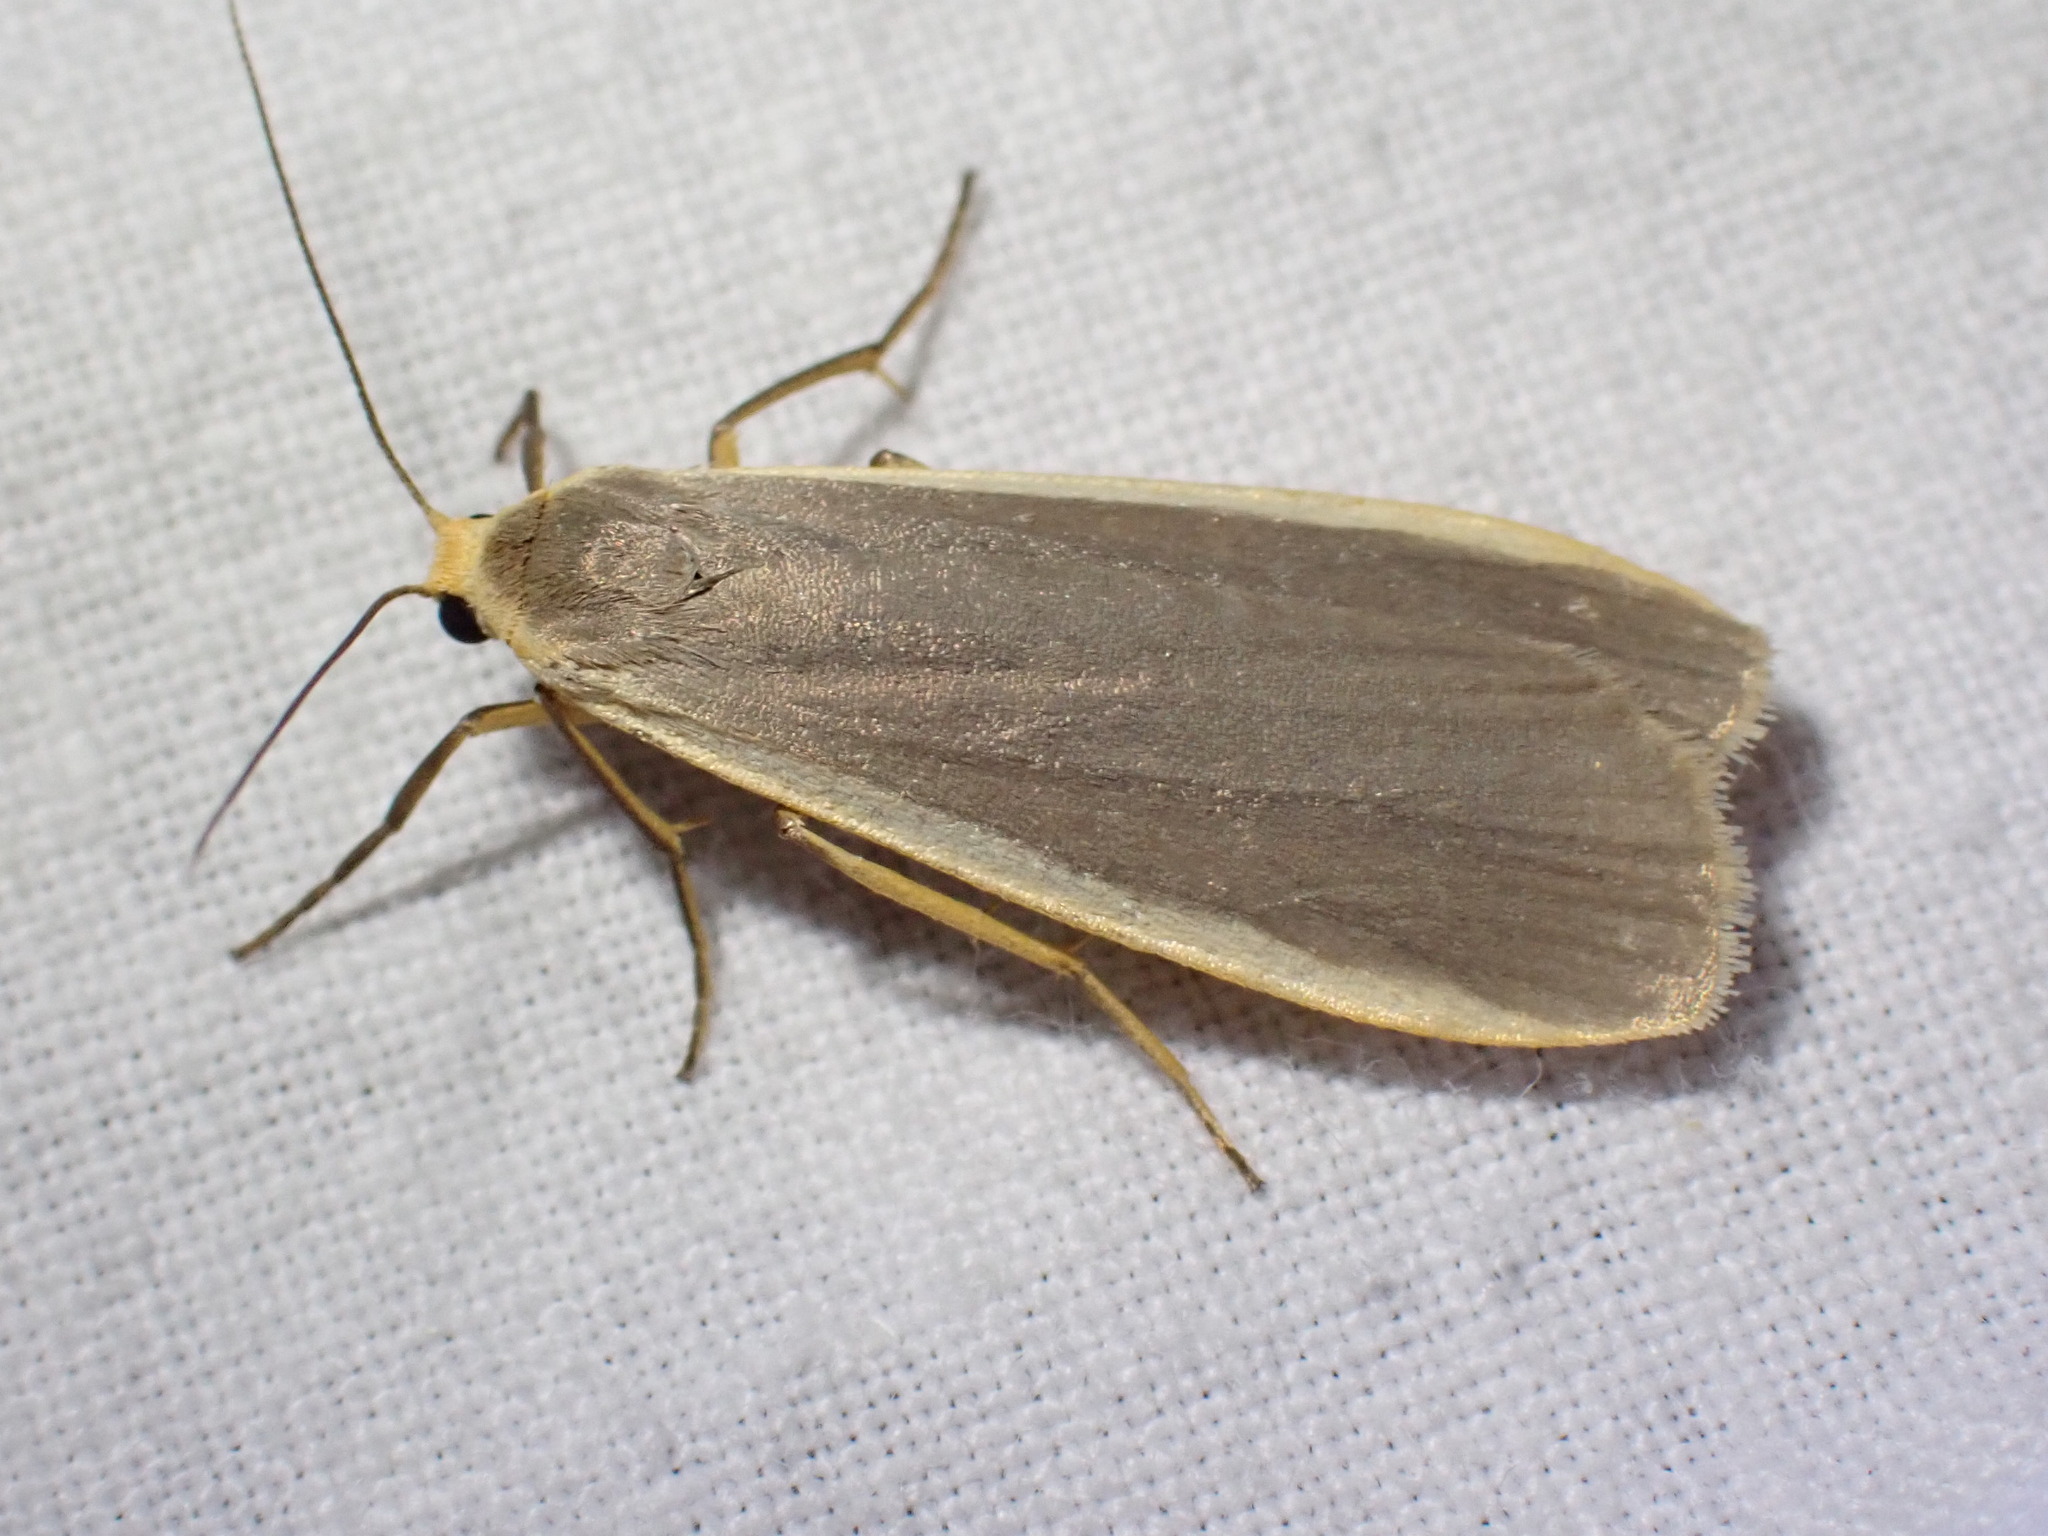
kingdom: Animalia
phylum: Arthropoda
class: Insecta
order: Lepidoptera
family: Erebidae
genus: Nyea
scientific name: Nyea lurideola
